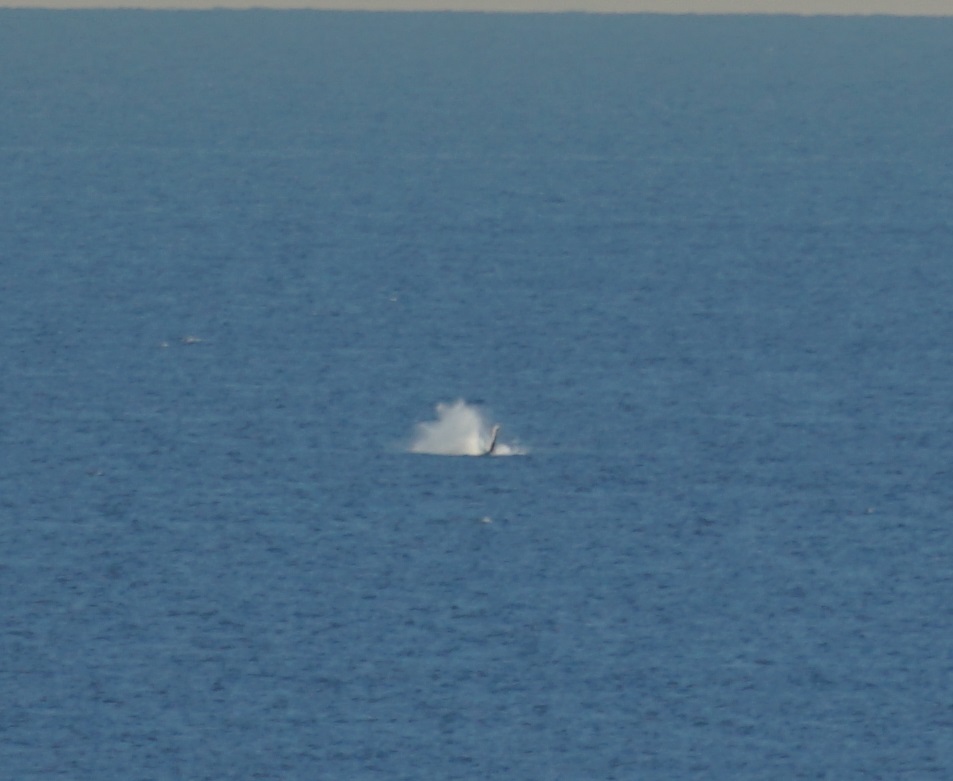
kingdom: Animalia
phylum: Chordata
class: Mammalia
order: Cetacea
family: Balaenopteridae
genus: Megaptera
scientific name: Megaptera novaeangliae
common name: Humpback whale
